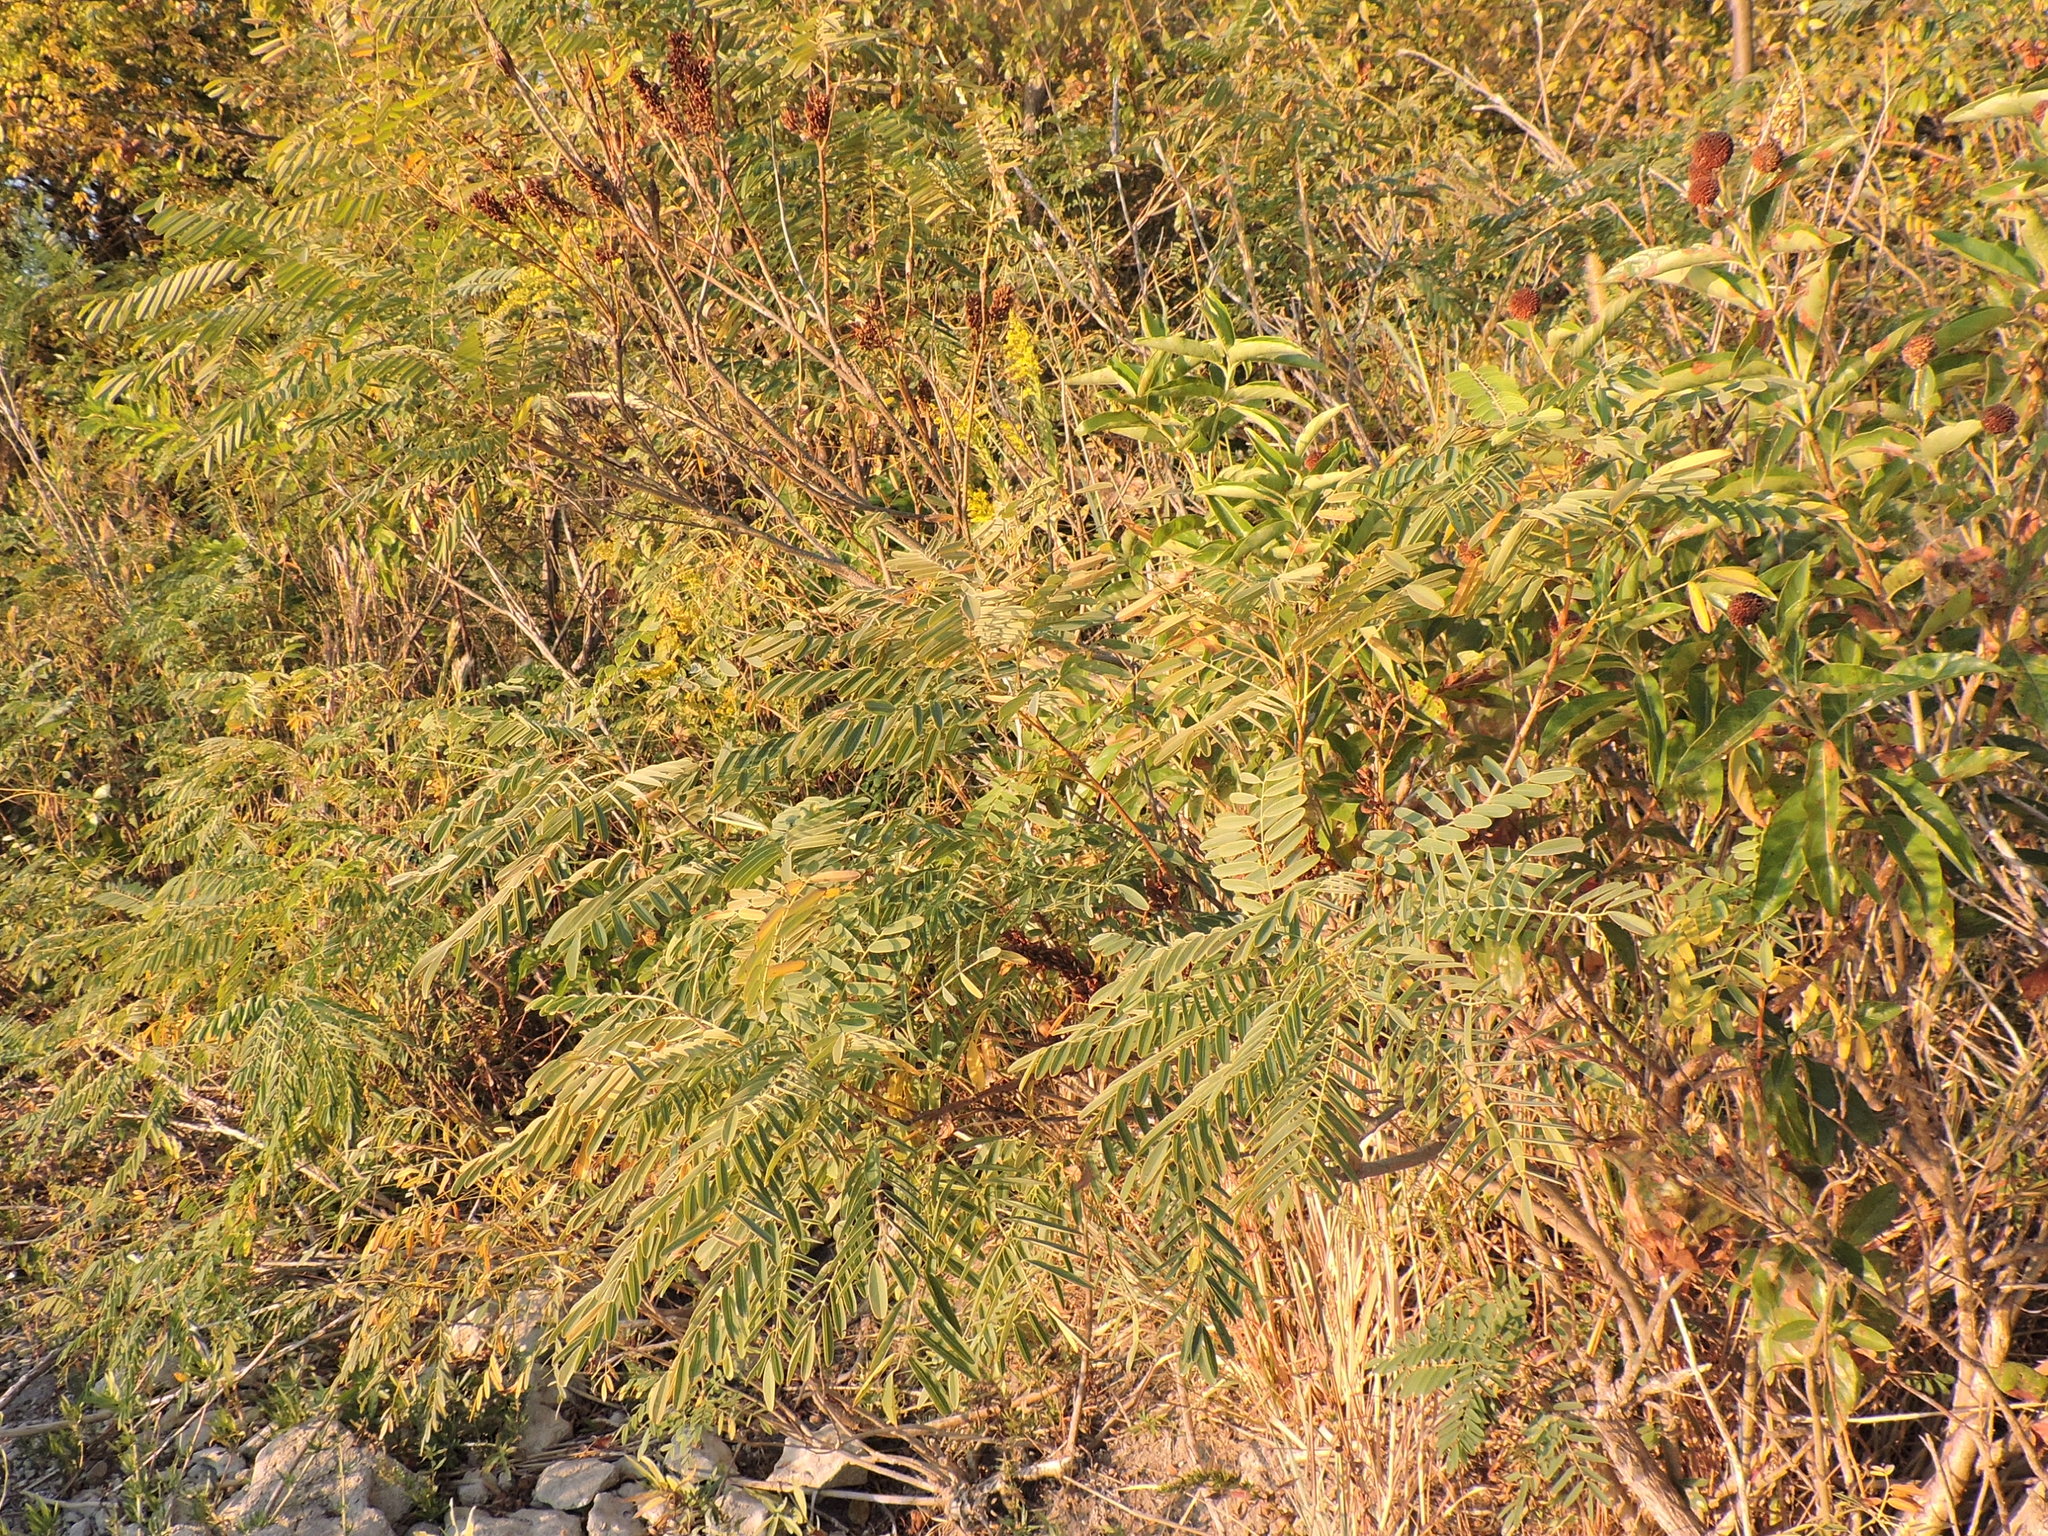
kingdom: Plantae
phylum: Tracheophyta
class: Magnoliopsida
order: Fabales
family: Fabaceae
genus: Amorpha
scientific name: Amorpha fruticosa
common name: False indigo
